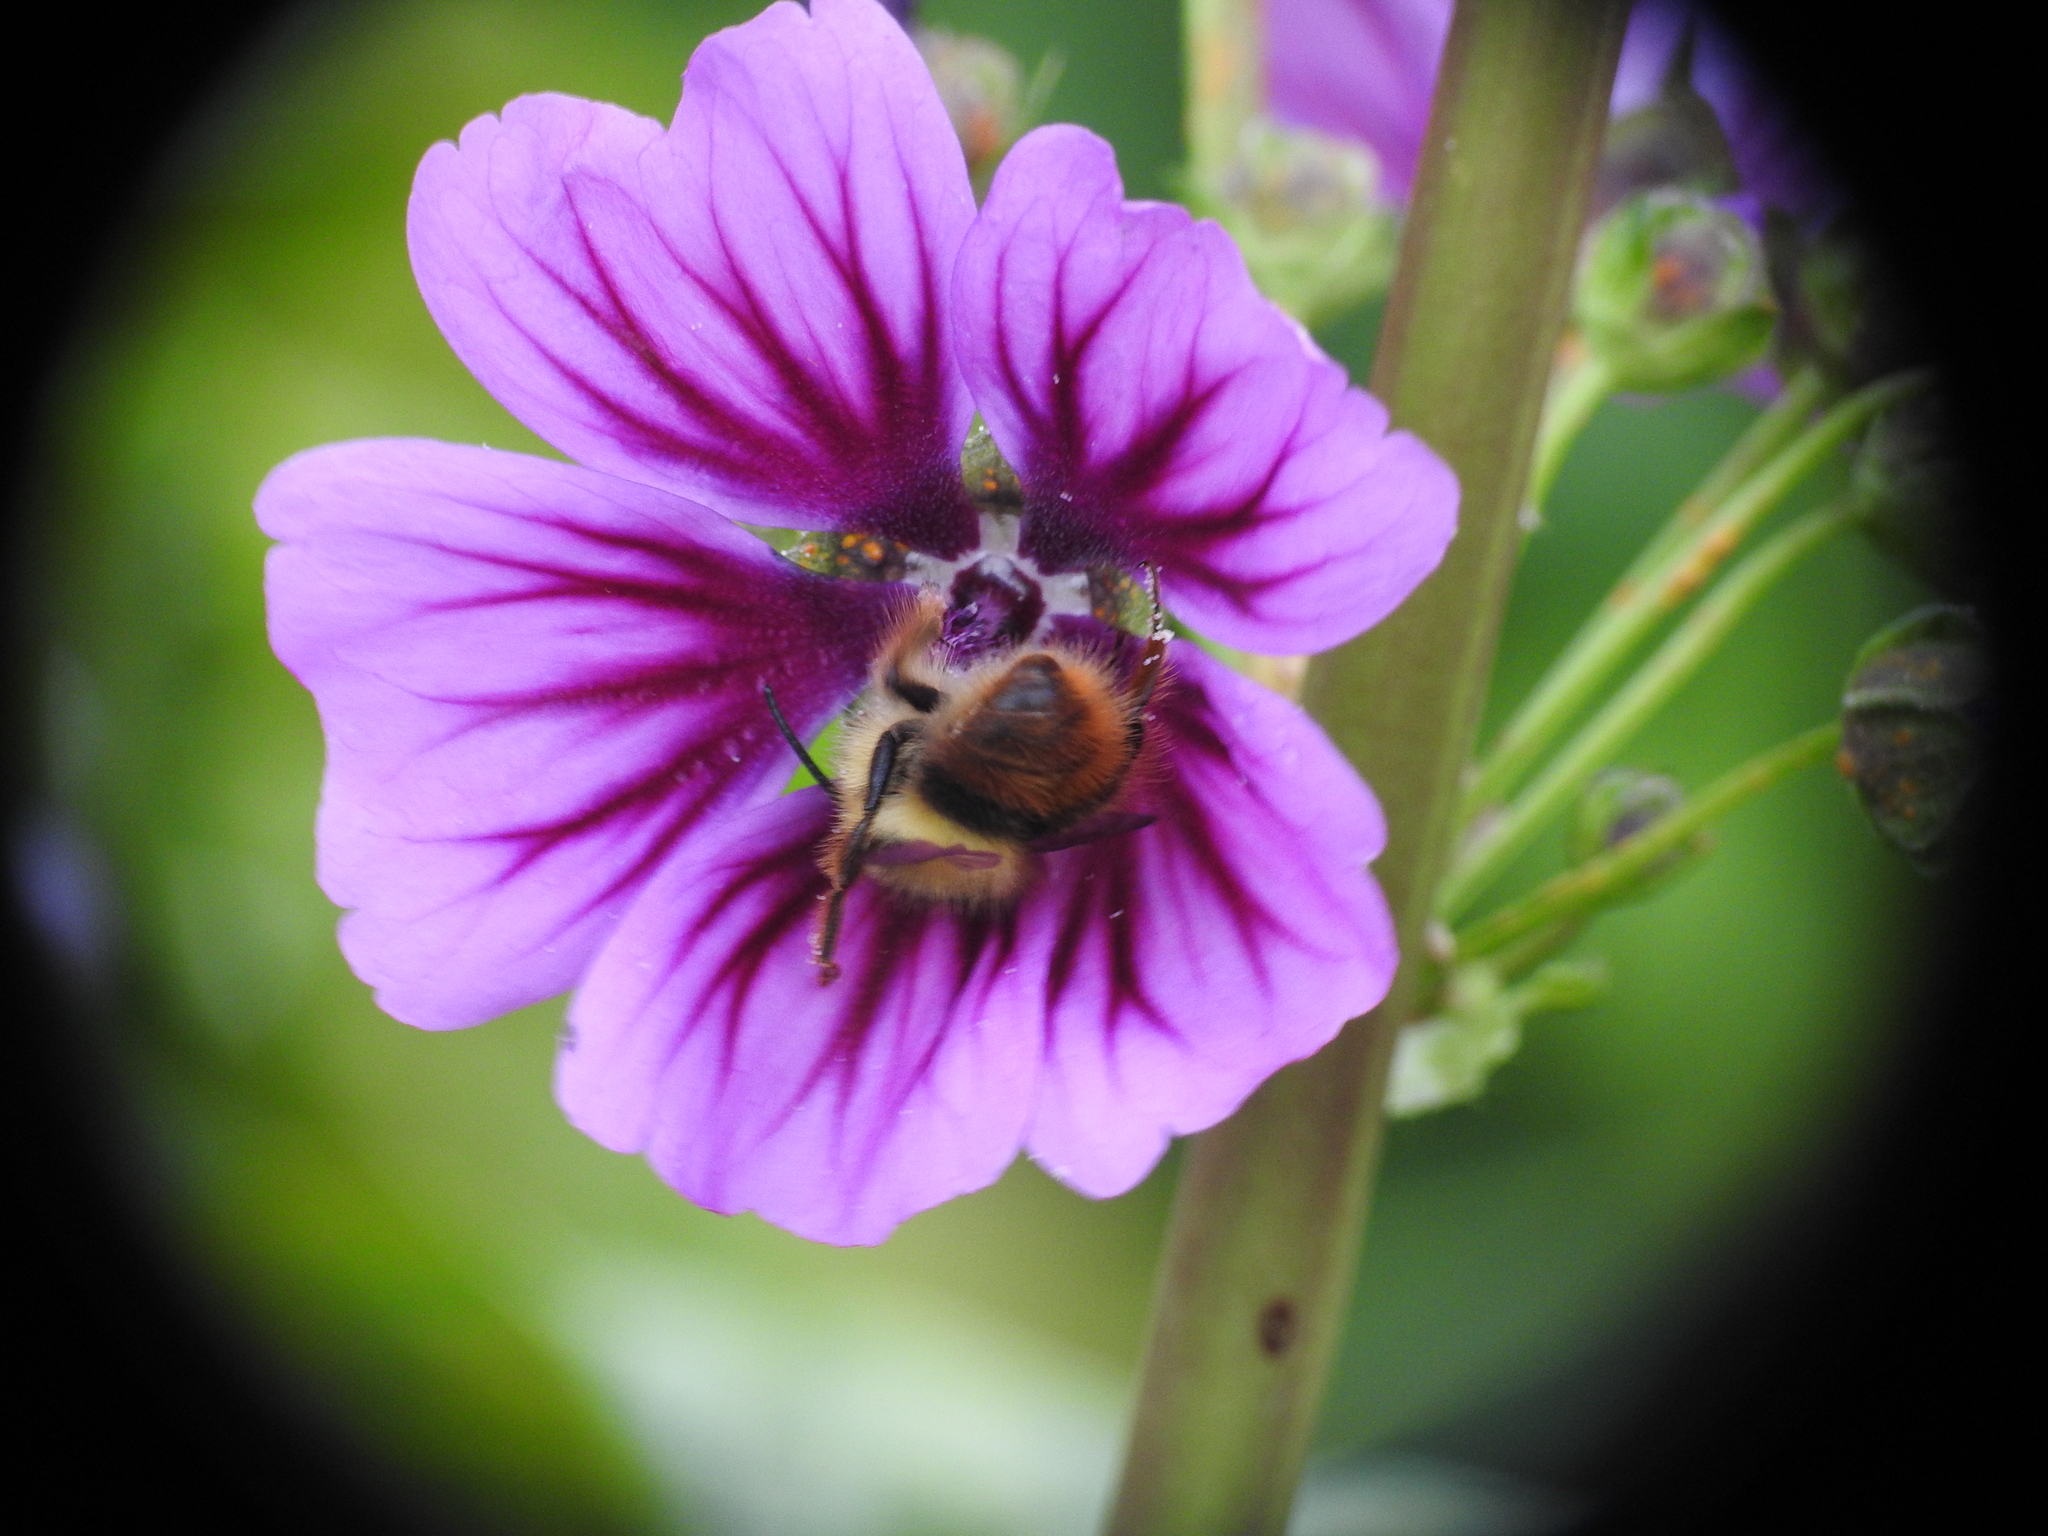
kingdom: Animalia
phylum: Arthropoda
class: Insecta
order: Hymenoptera
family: Apidae
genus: Bombus
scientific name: Bombus mixtus
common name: Fuzzy-horned bumble bee
